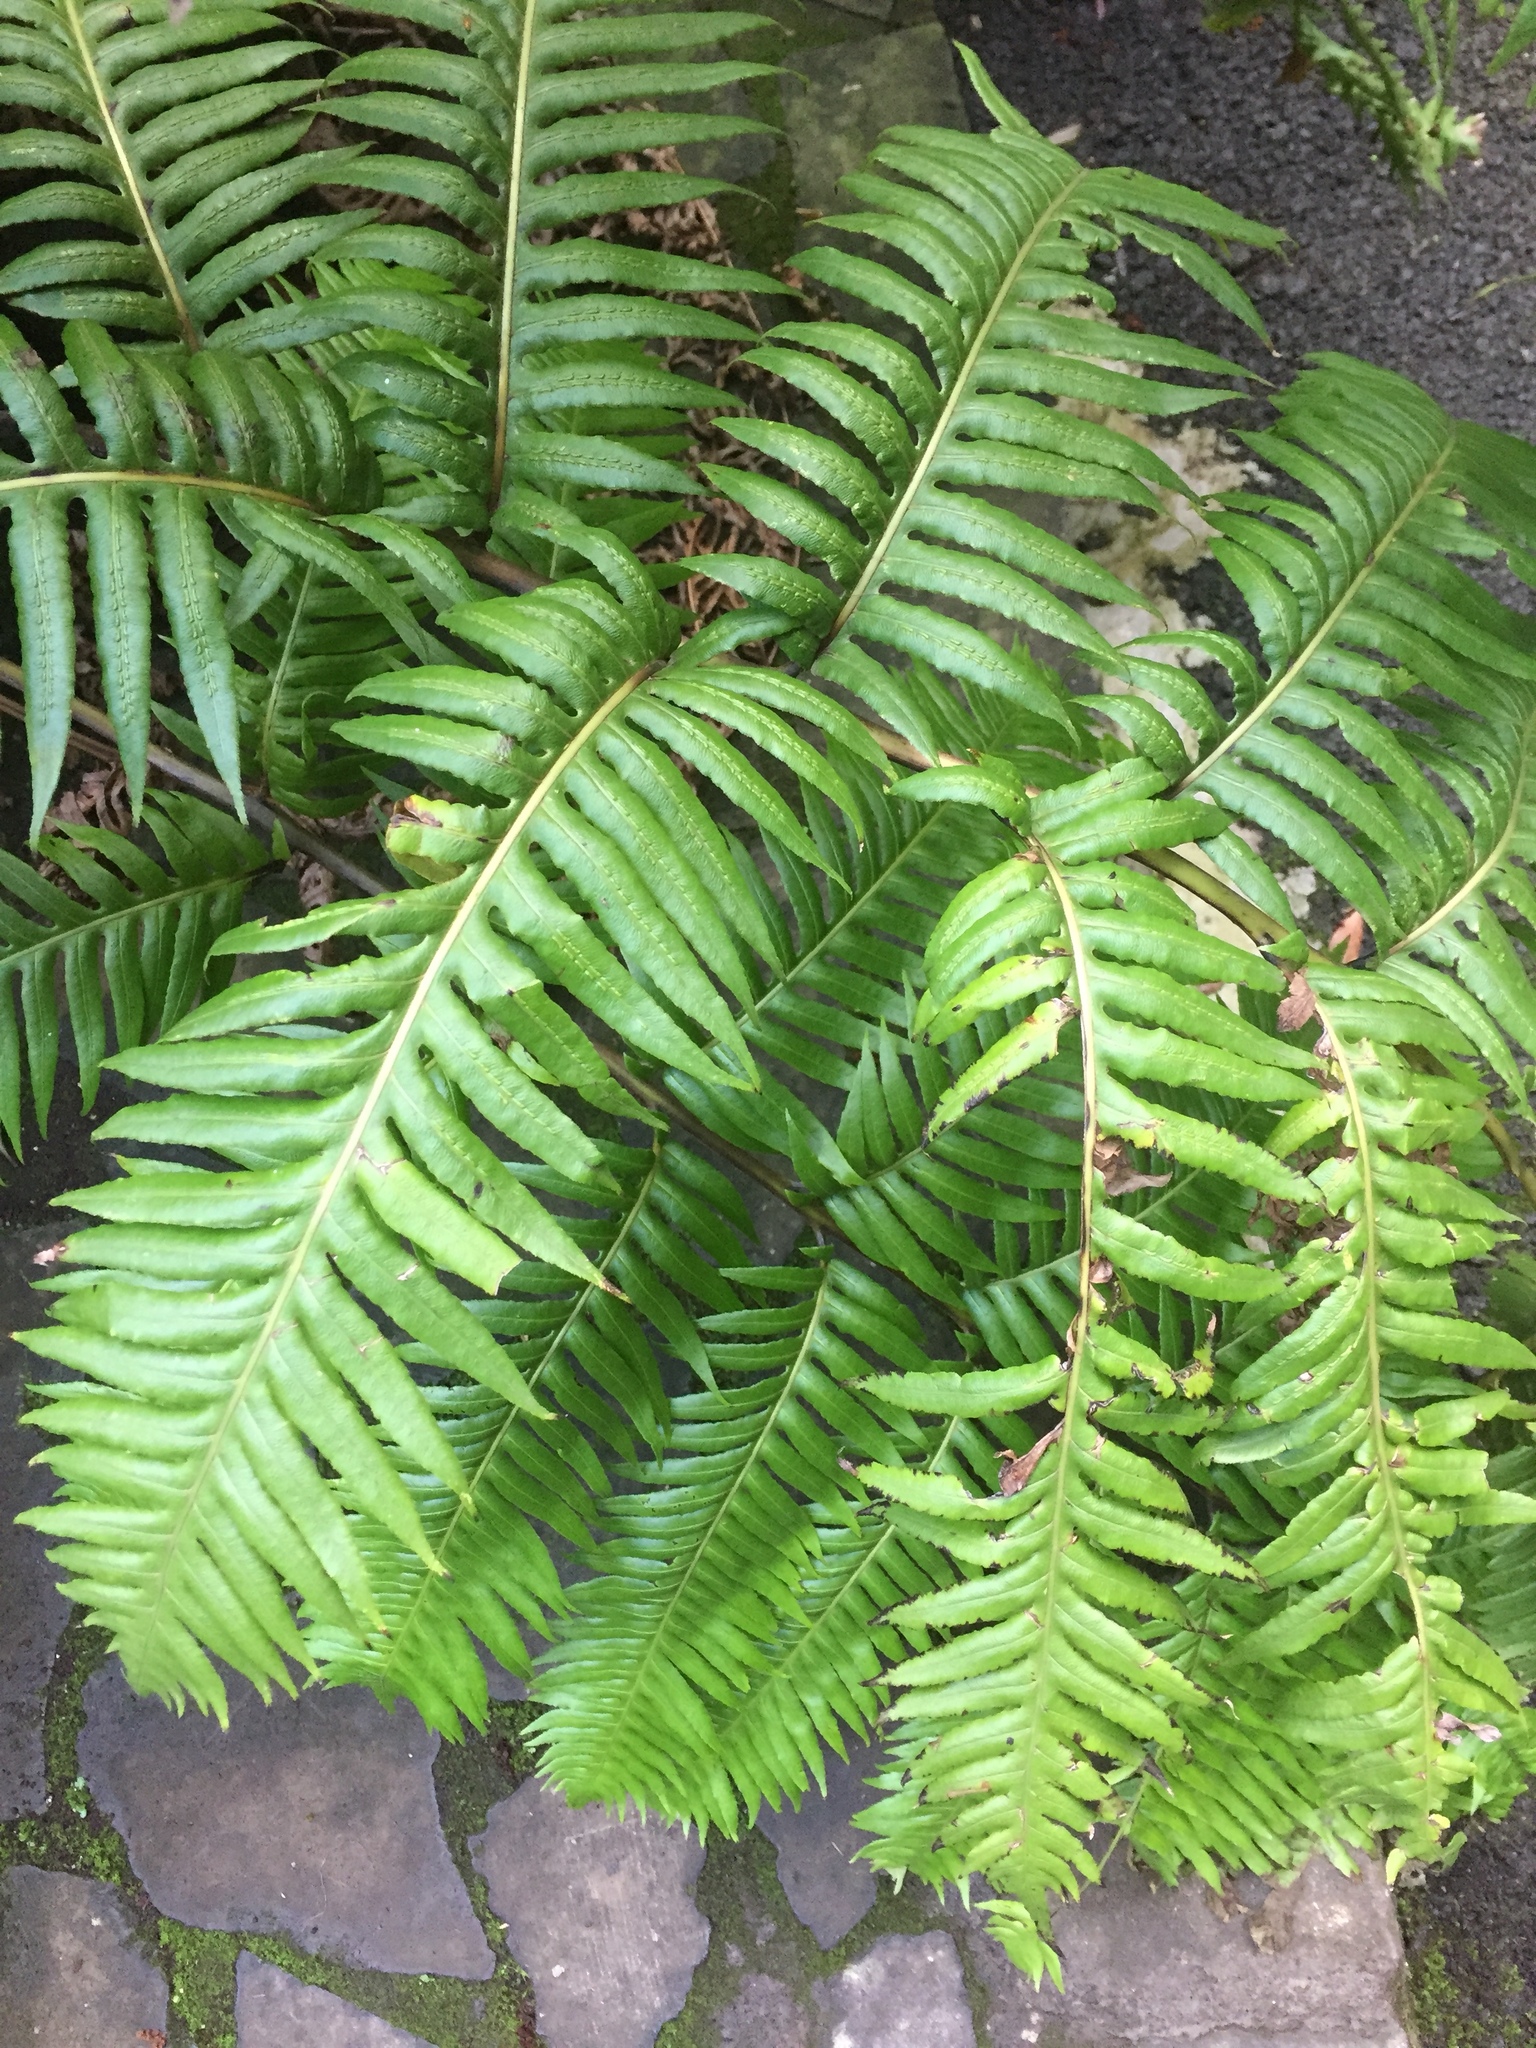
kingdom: Plantae
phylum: Tracheophyta
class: Polypodiopsida
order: Polypodiales
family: Blechnaceae
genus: Woodwardia
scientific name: Woodwardia radicans
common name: Rooting chainfern
